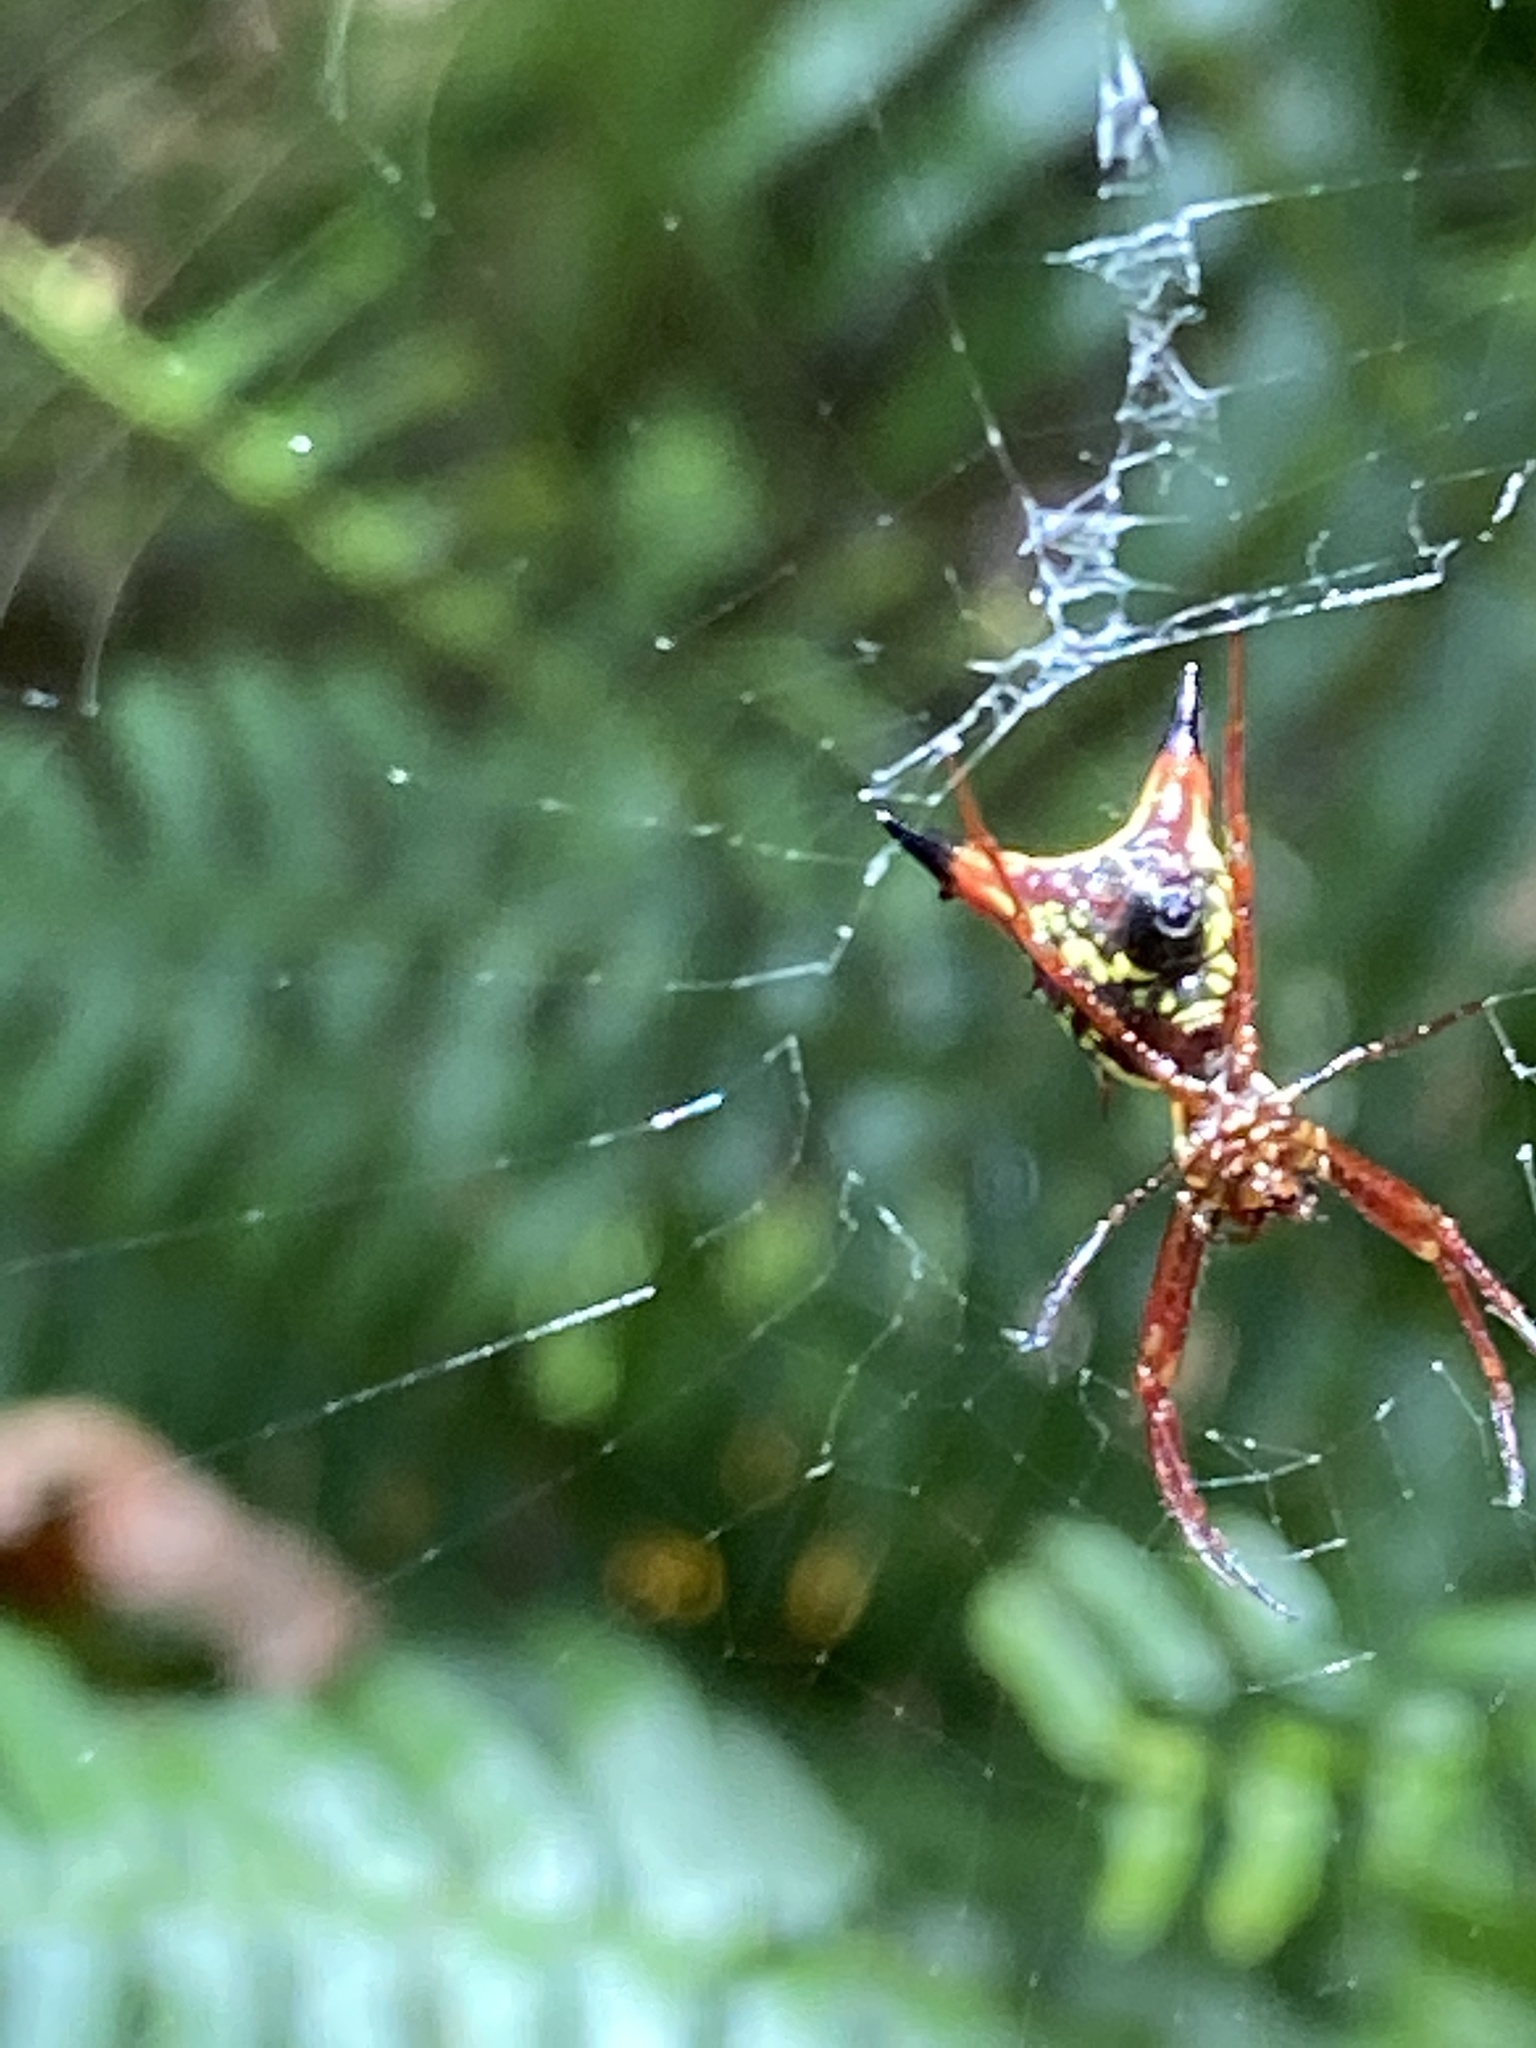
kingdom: Animalia
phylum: Arthropoda
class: Arachnida
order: Araneae
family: Araneidae
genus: Micrathena
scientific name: Micrathena sagittata
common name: Orb weavers
